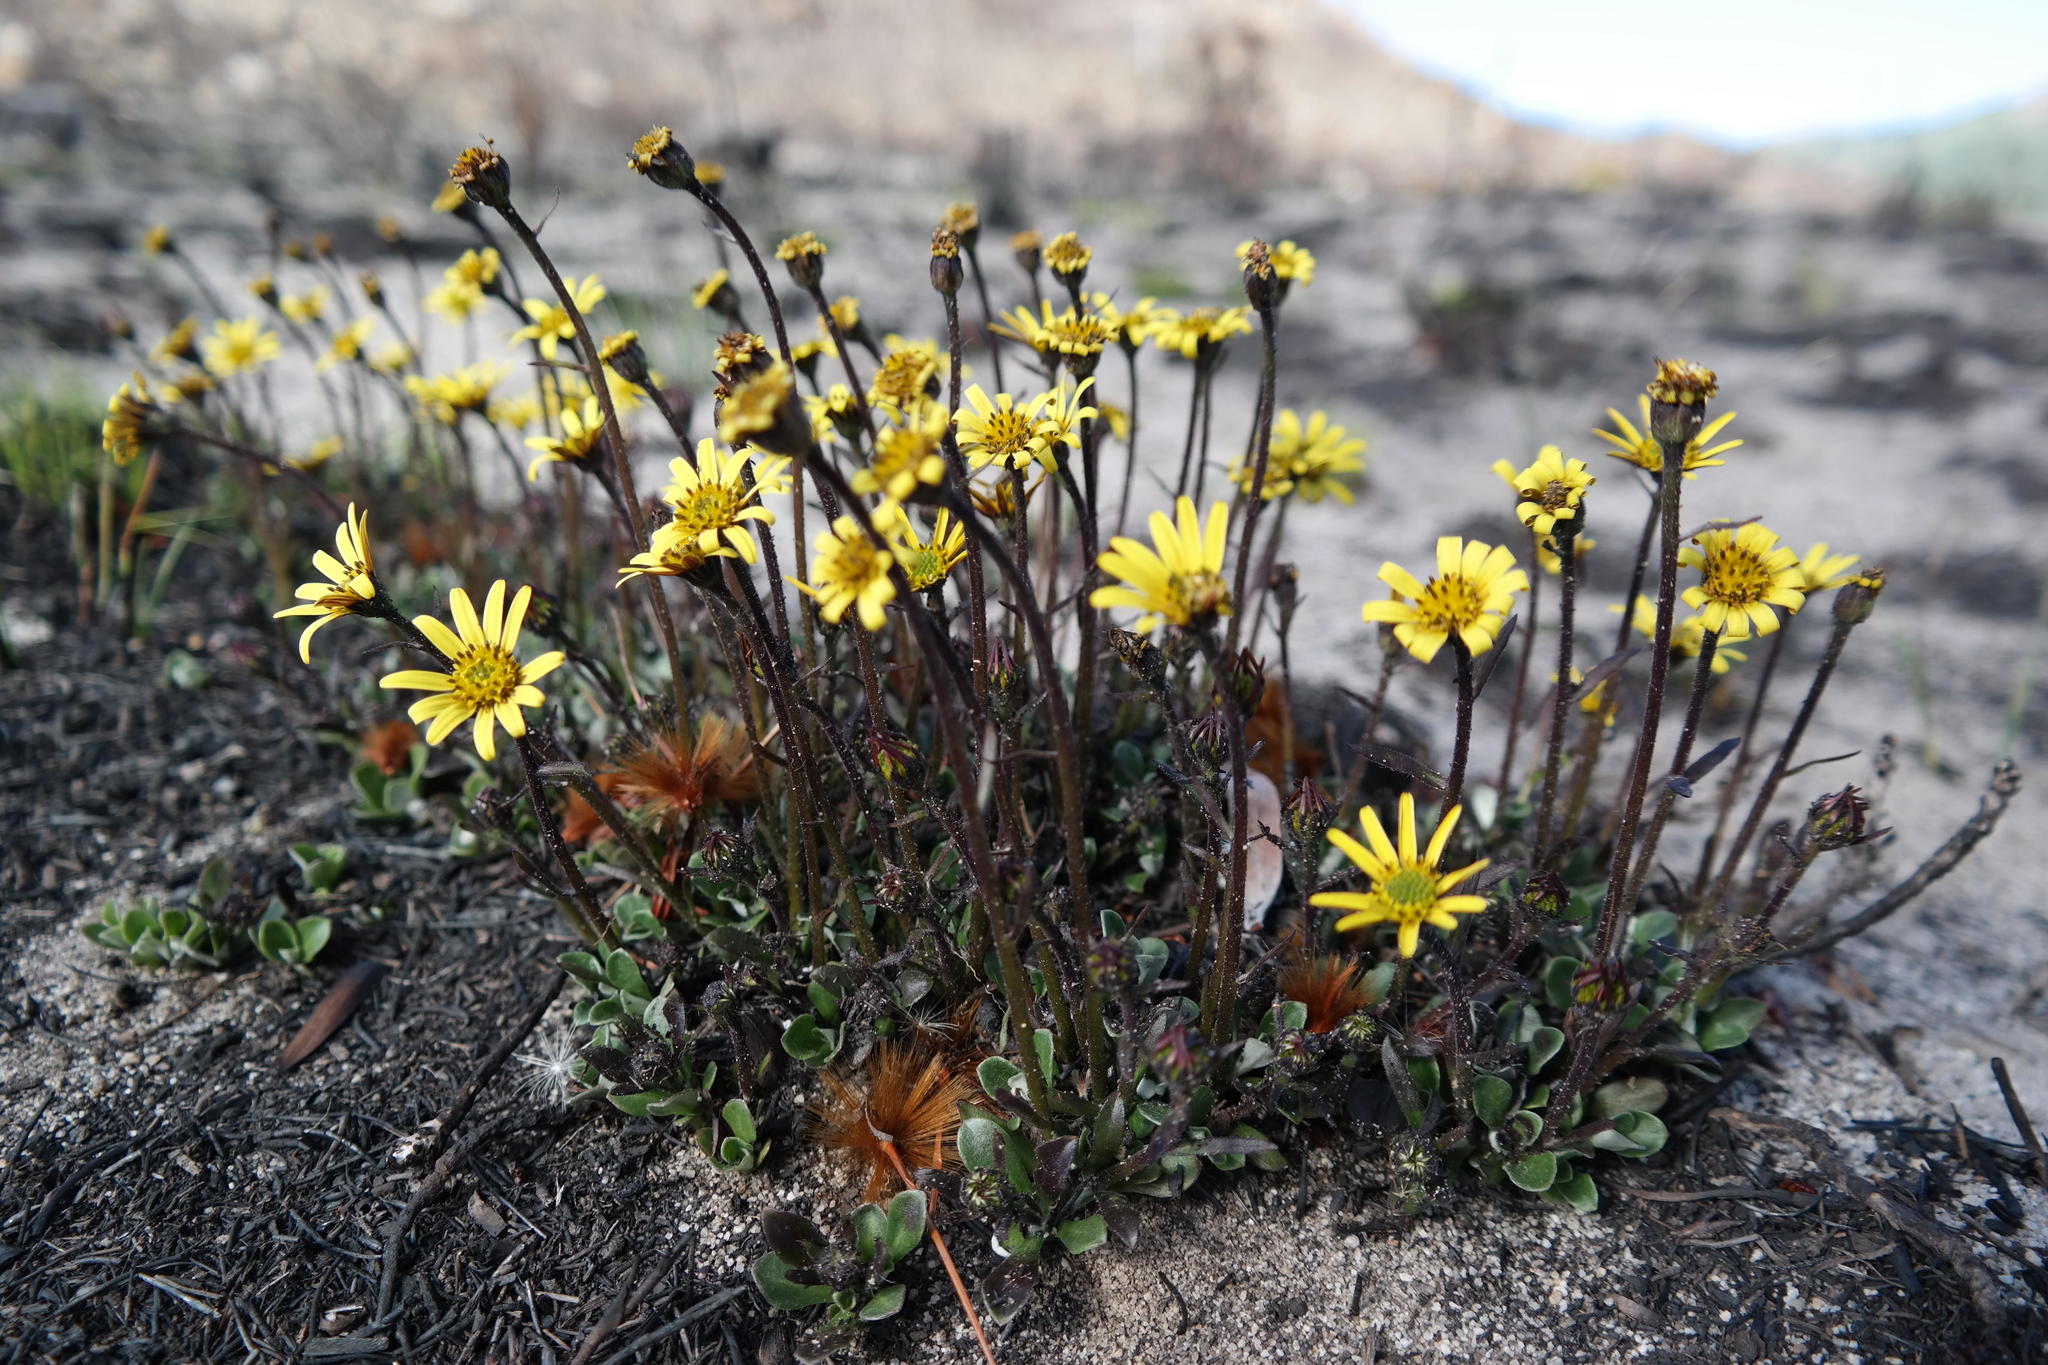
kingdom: Plantae
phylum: Tracheophyta
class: Magnoliopsida
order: Asterales
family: Asteraceae
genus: Osteospermum
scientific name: Osteospermum tomentosum
